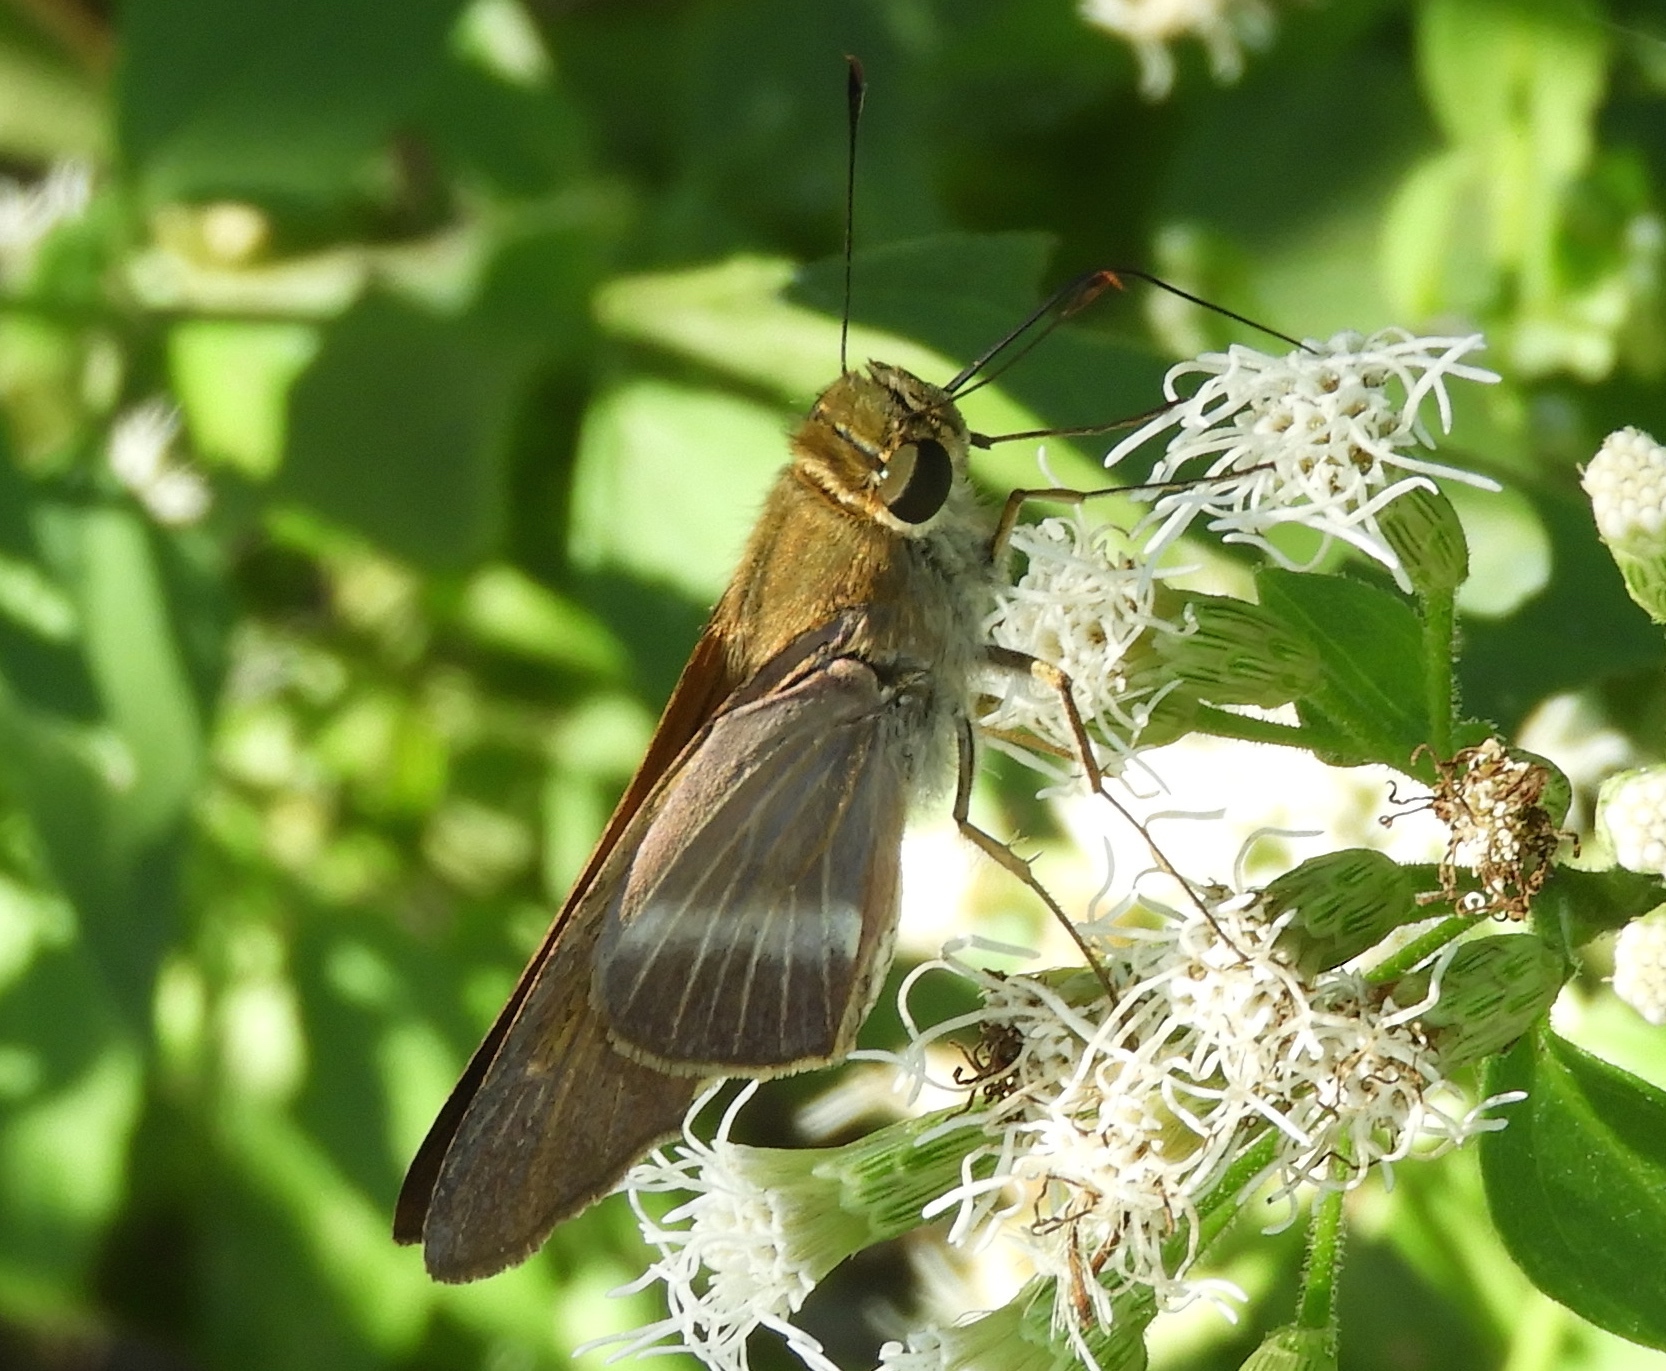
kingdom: Animalia
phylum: Arthropoda
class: Insecta
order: Lepidoptera
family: Hesperiidae
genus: Panoquina
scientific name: Panoquina fusina
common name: Evans' skipper
